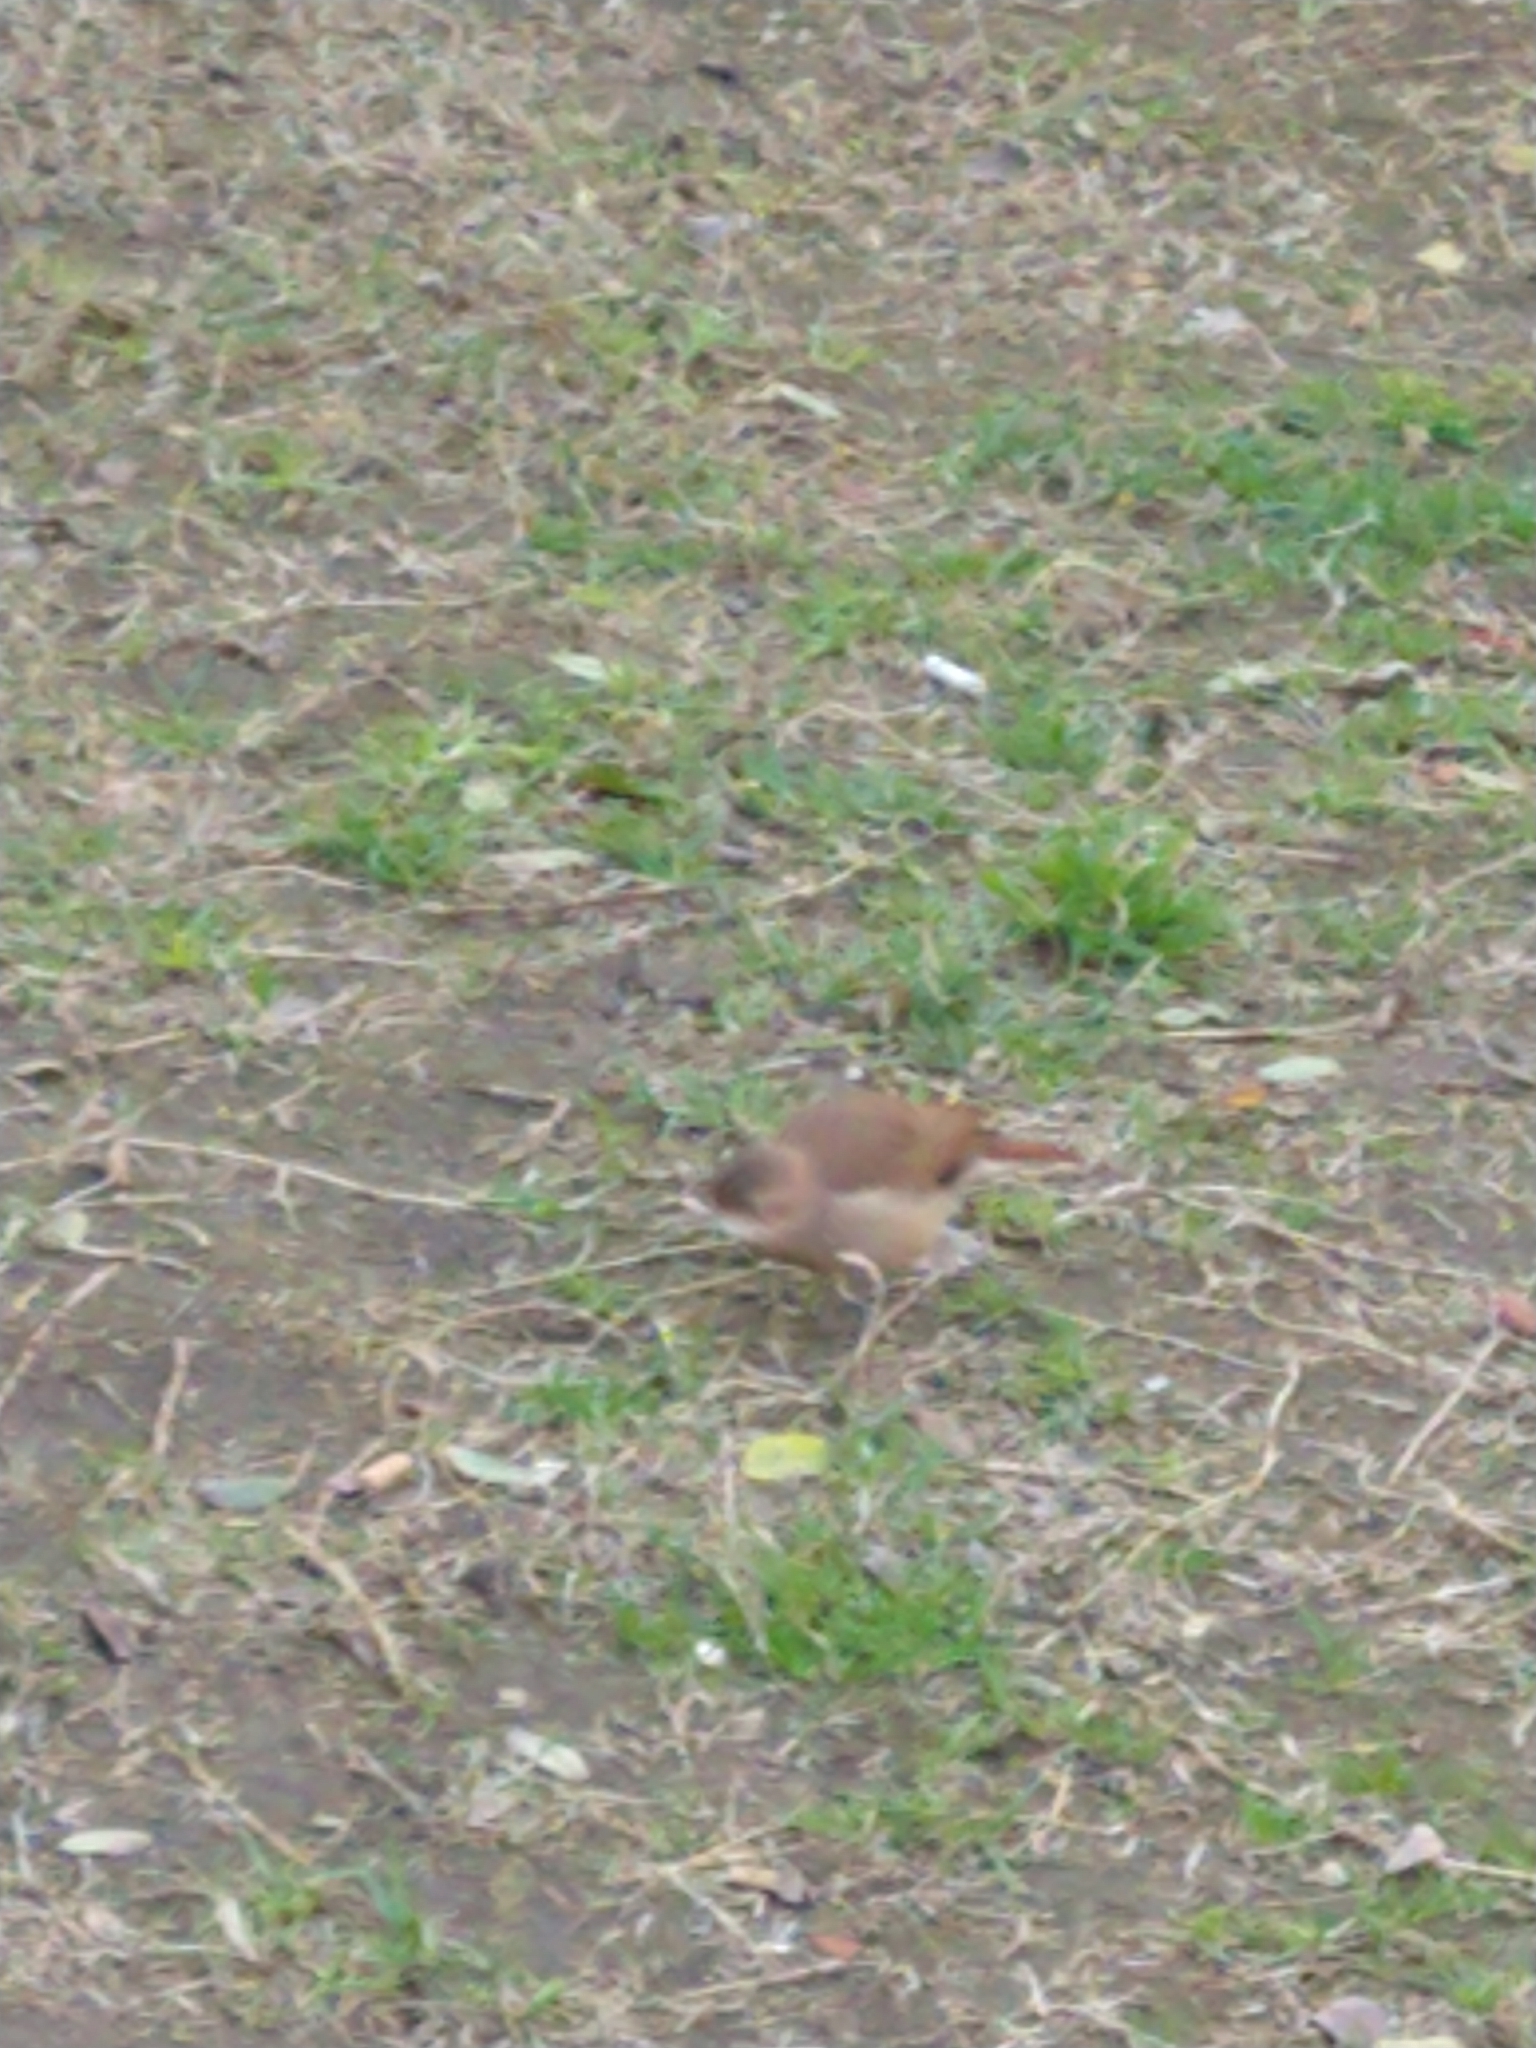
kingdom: Animalia
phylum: Chordata
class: Aves
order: Passeriformes
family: Furnariidae
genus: Furnarius
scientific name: Furnarius rufus
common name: Rufous hornero
